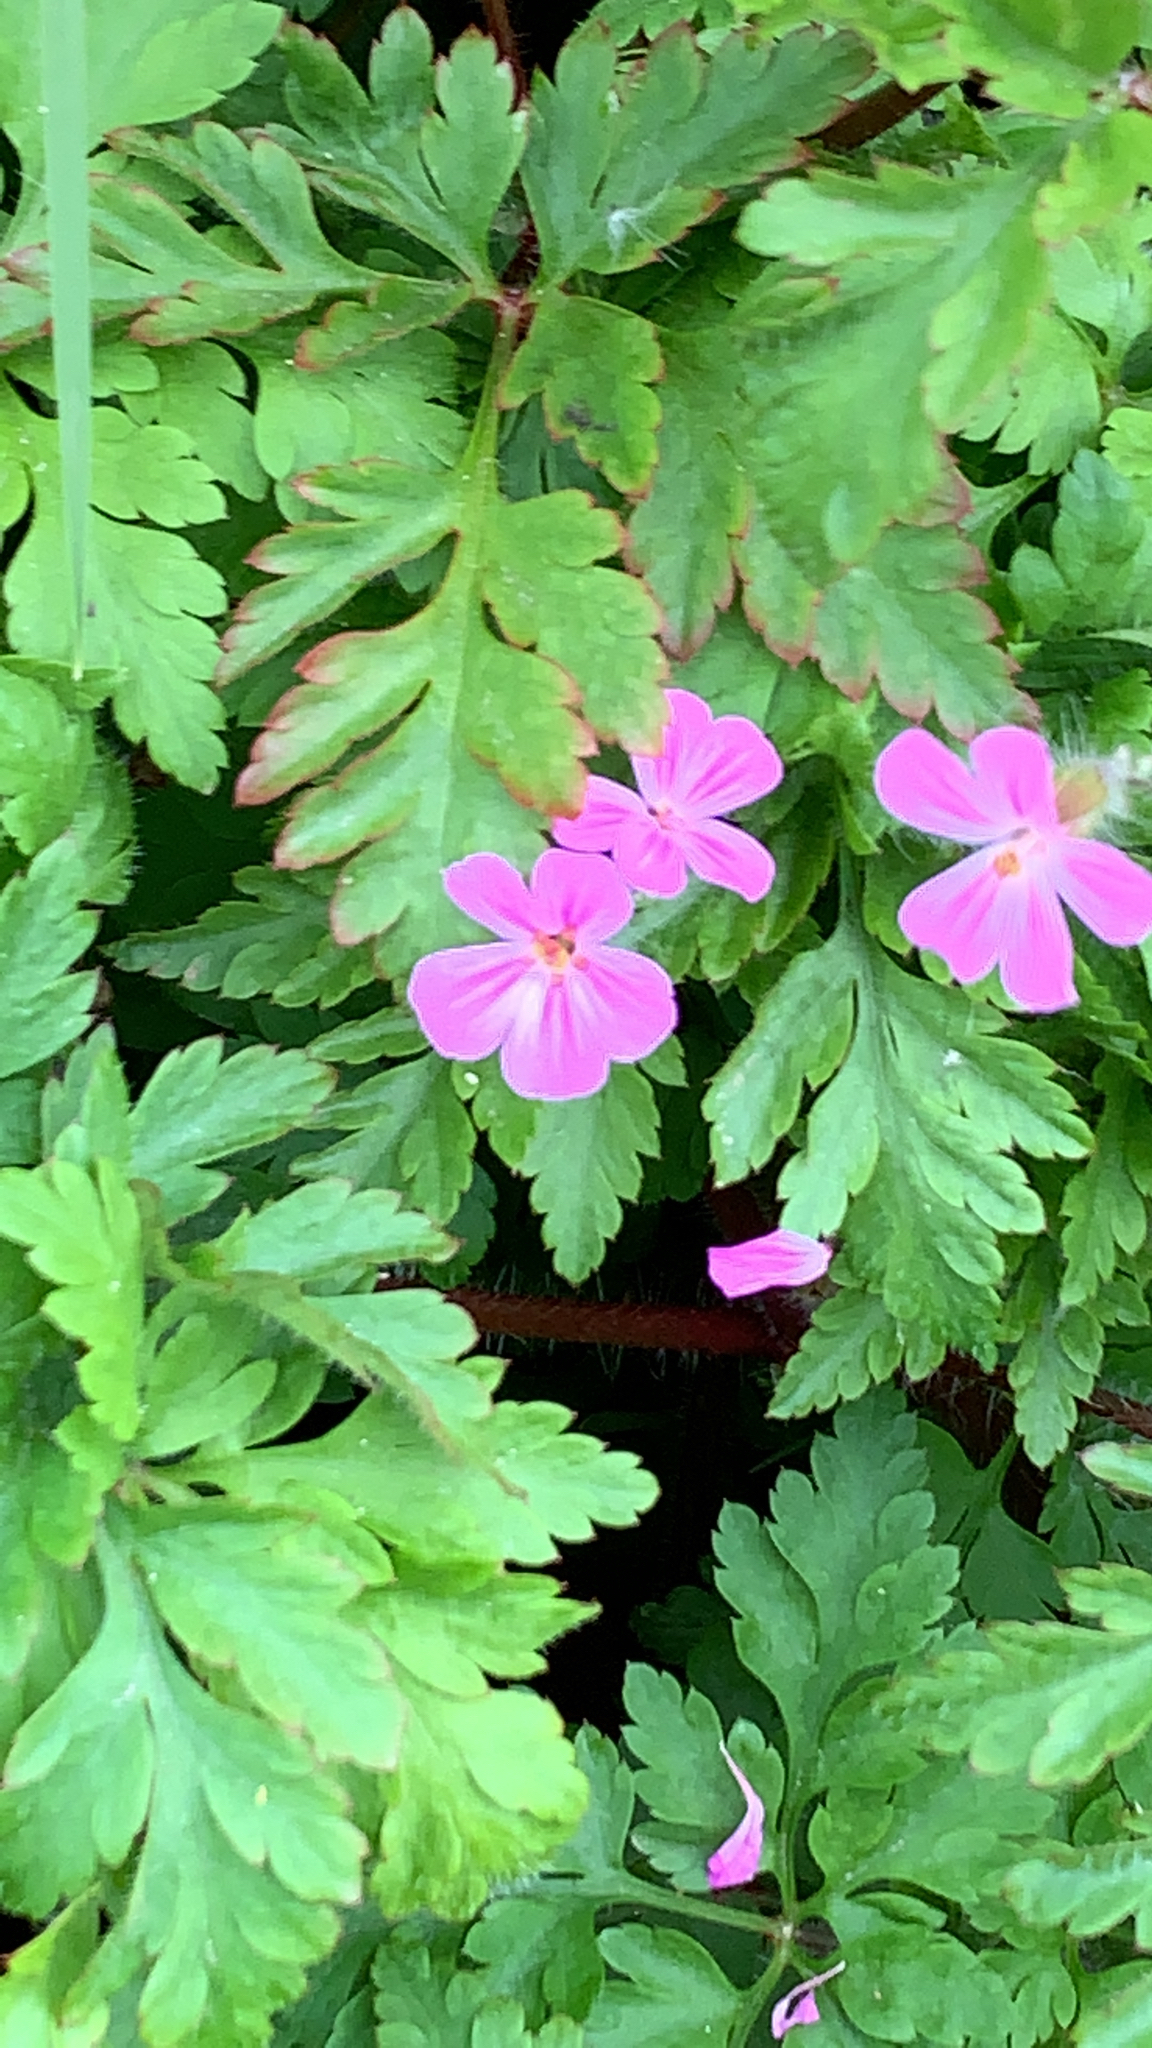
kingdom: Plantae
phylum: Tracheophyta
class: Magnoliopsida
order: Geraniales
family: Geraniaceae
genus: Geranium
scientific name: Geranium robertianum
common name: Herb-robert
